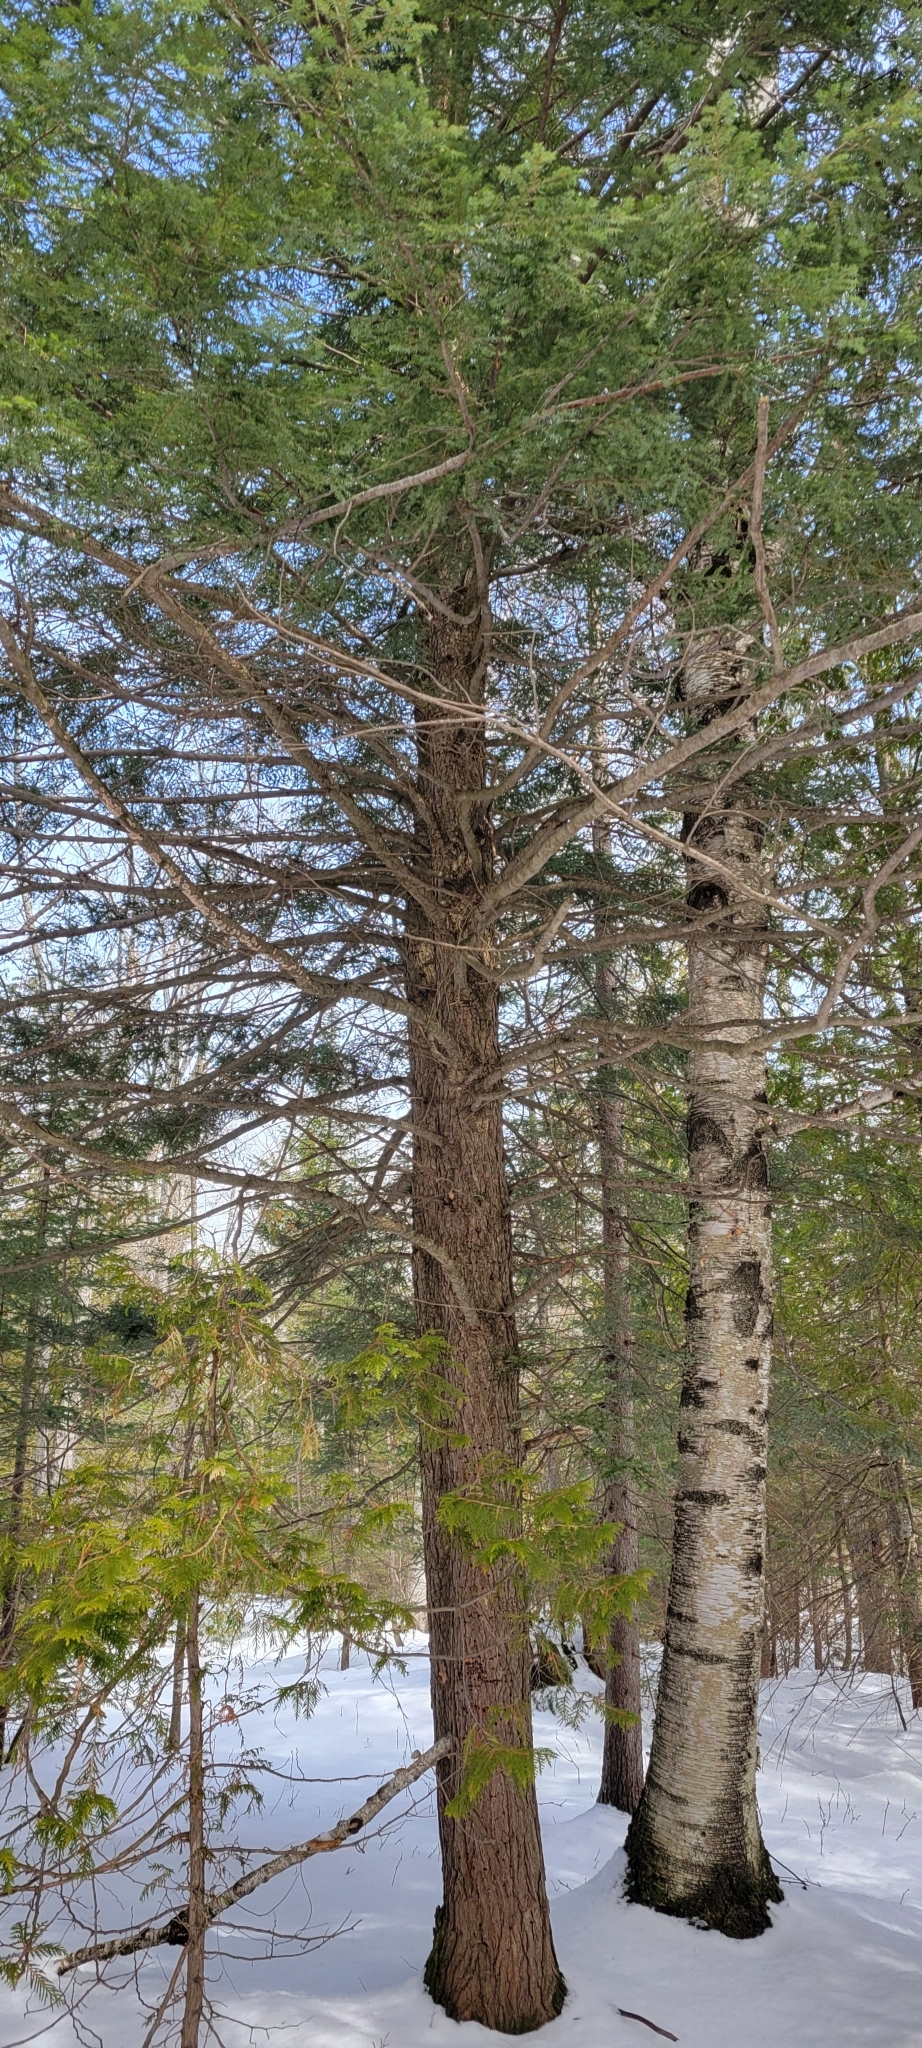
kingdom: Plantae
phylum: Tracheophyta
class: Pinopsida
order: Pinales
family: Pinaceae
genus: Tsuga
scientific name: Tsuga canadensis
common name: Eastern hemlock
